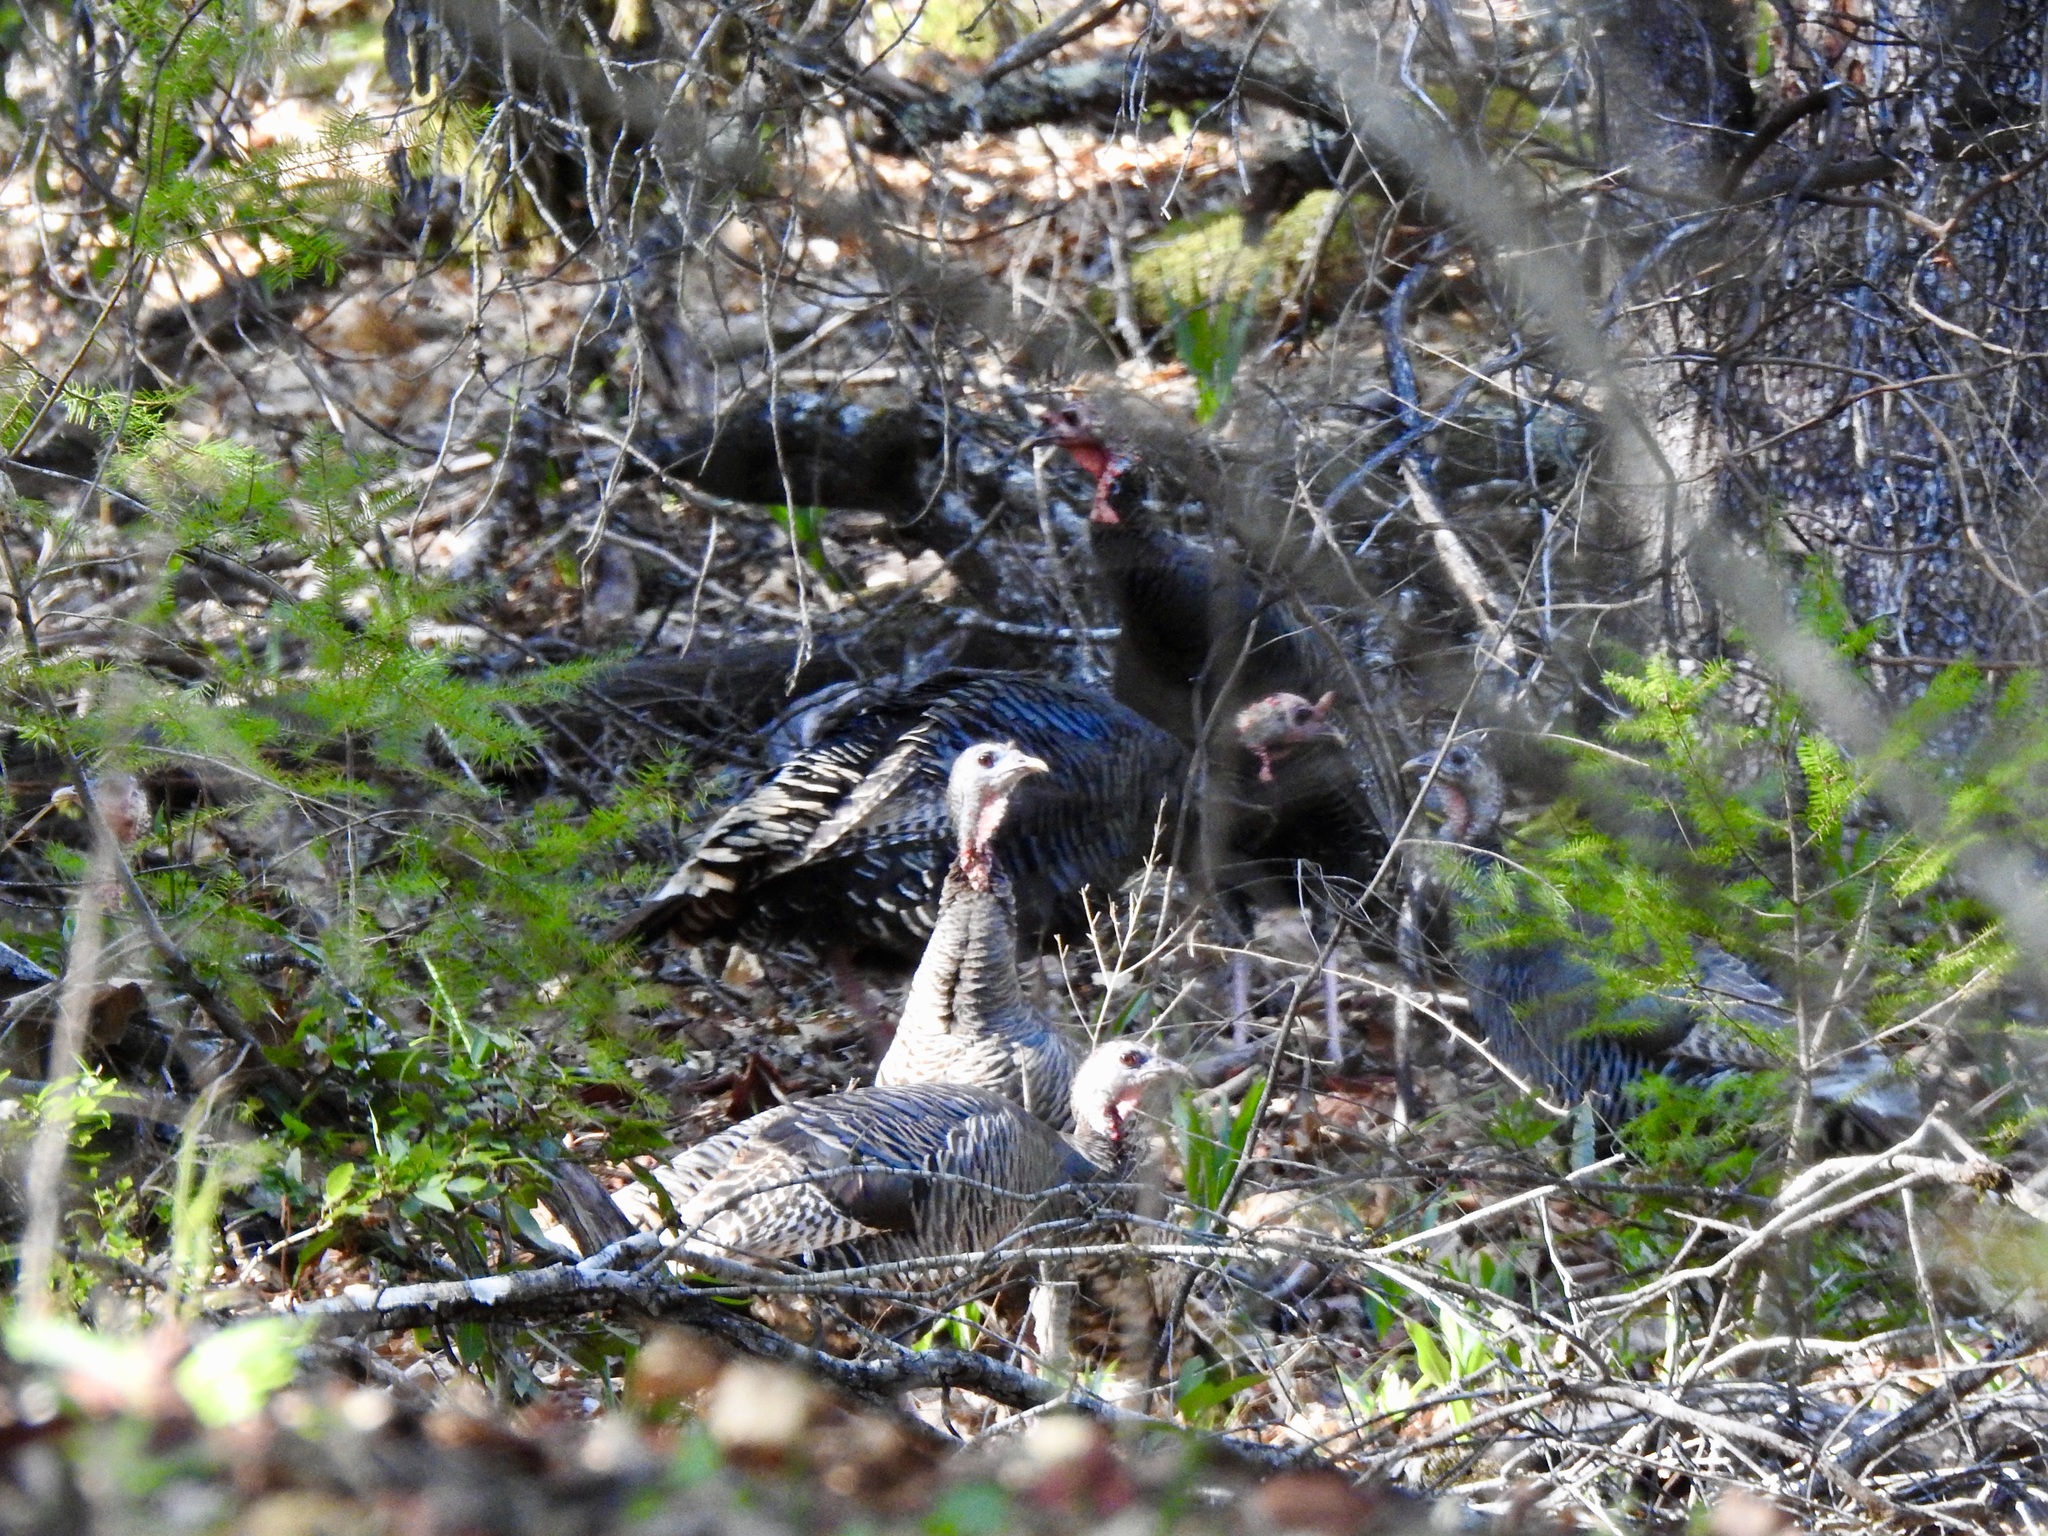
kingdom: Animalia
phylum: Chordata
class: Aves
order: Galliformes
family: Phasianidae
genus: Meleagris
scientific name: Meleagris gallopavo
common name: Wild turkey
